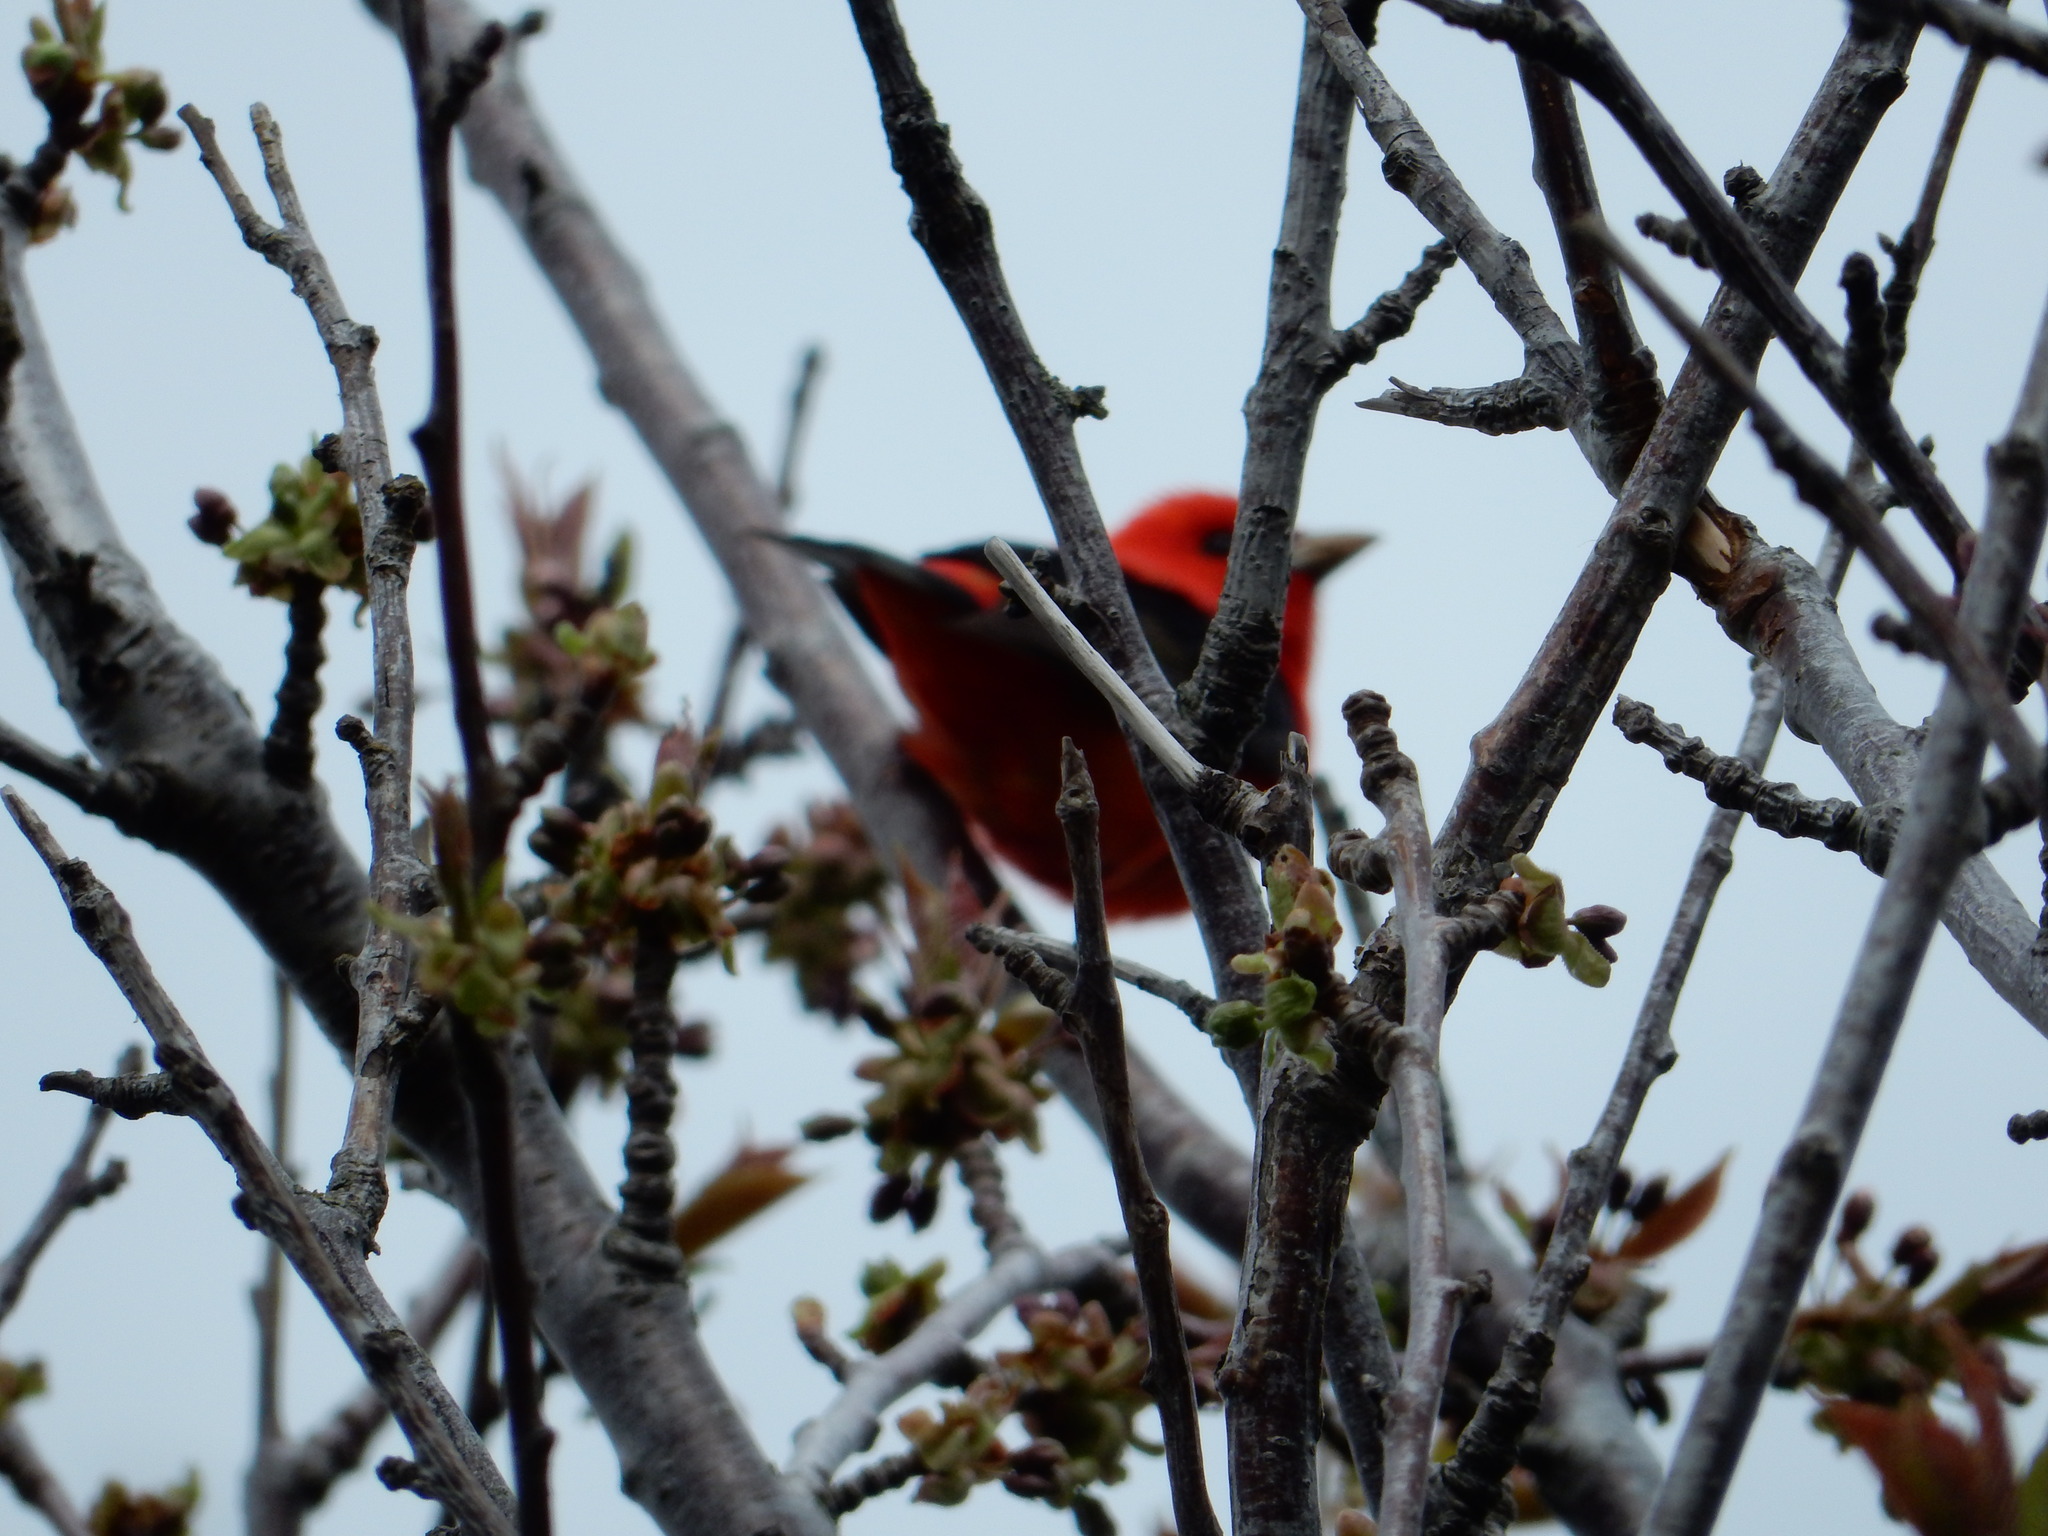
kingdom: Animalia
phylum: Chordata
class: Aves
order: Passeriformes
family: Cardinalidae
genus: Piranga
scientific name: Piranga olivacea
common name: Scarlet tanager
